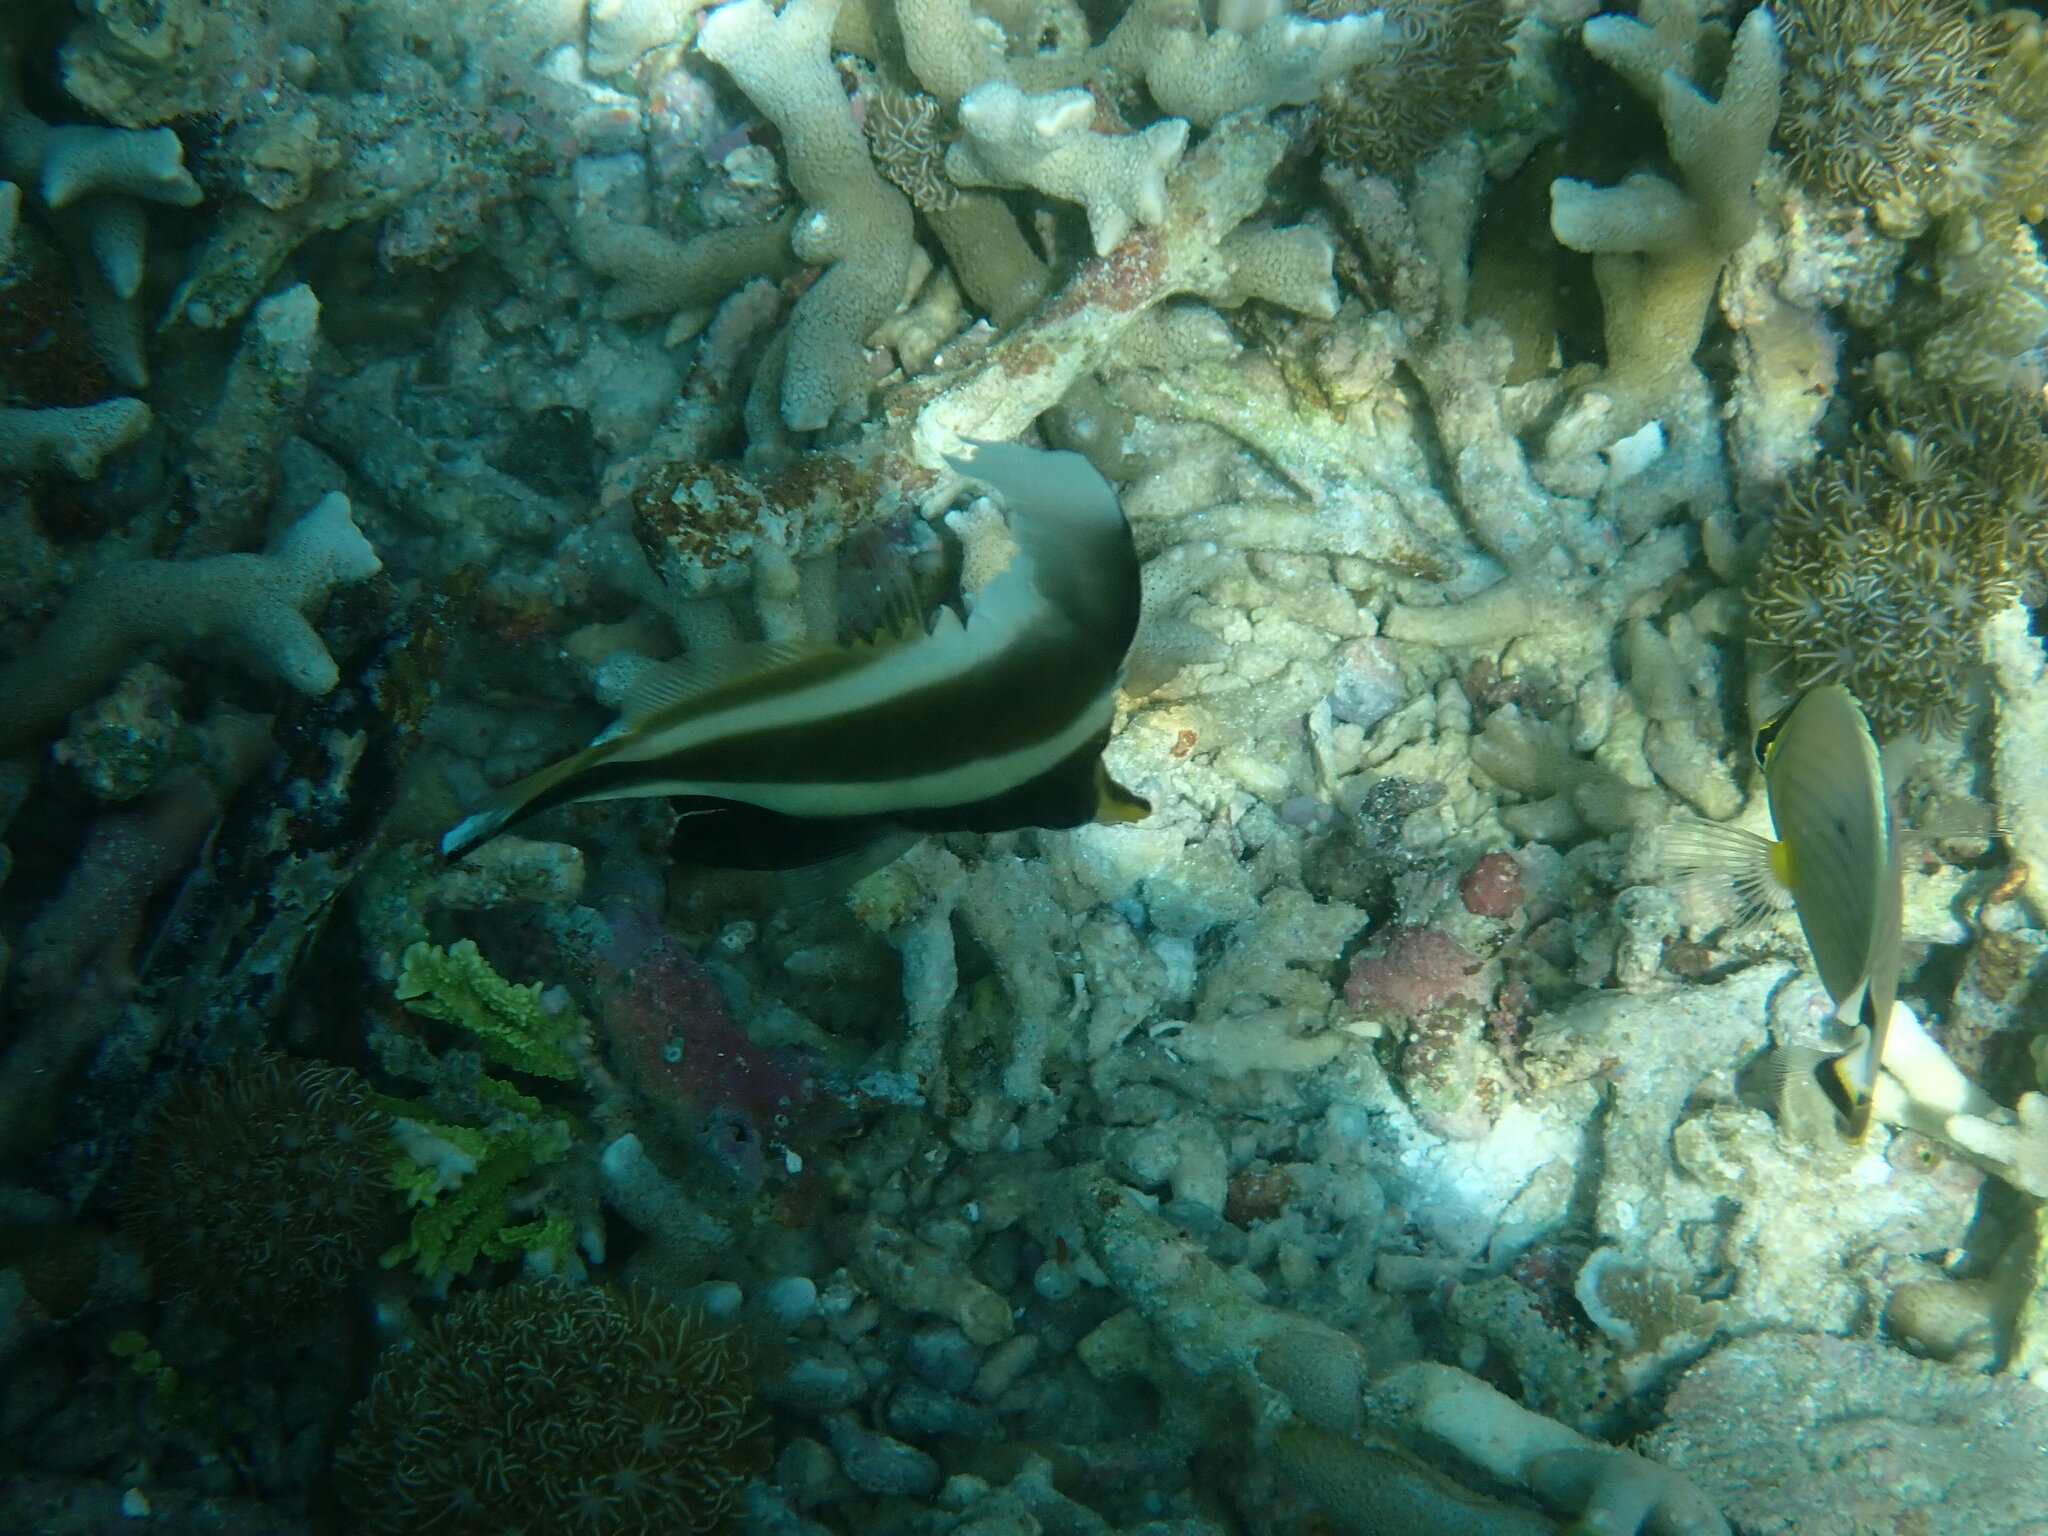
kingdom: Animalia
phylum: Chordata
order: Perciformes
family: Chaetodontidae
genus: Heniochus
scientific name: Heniochus chrysostomus
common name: Horned bannerfish
